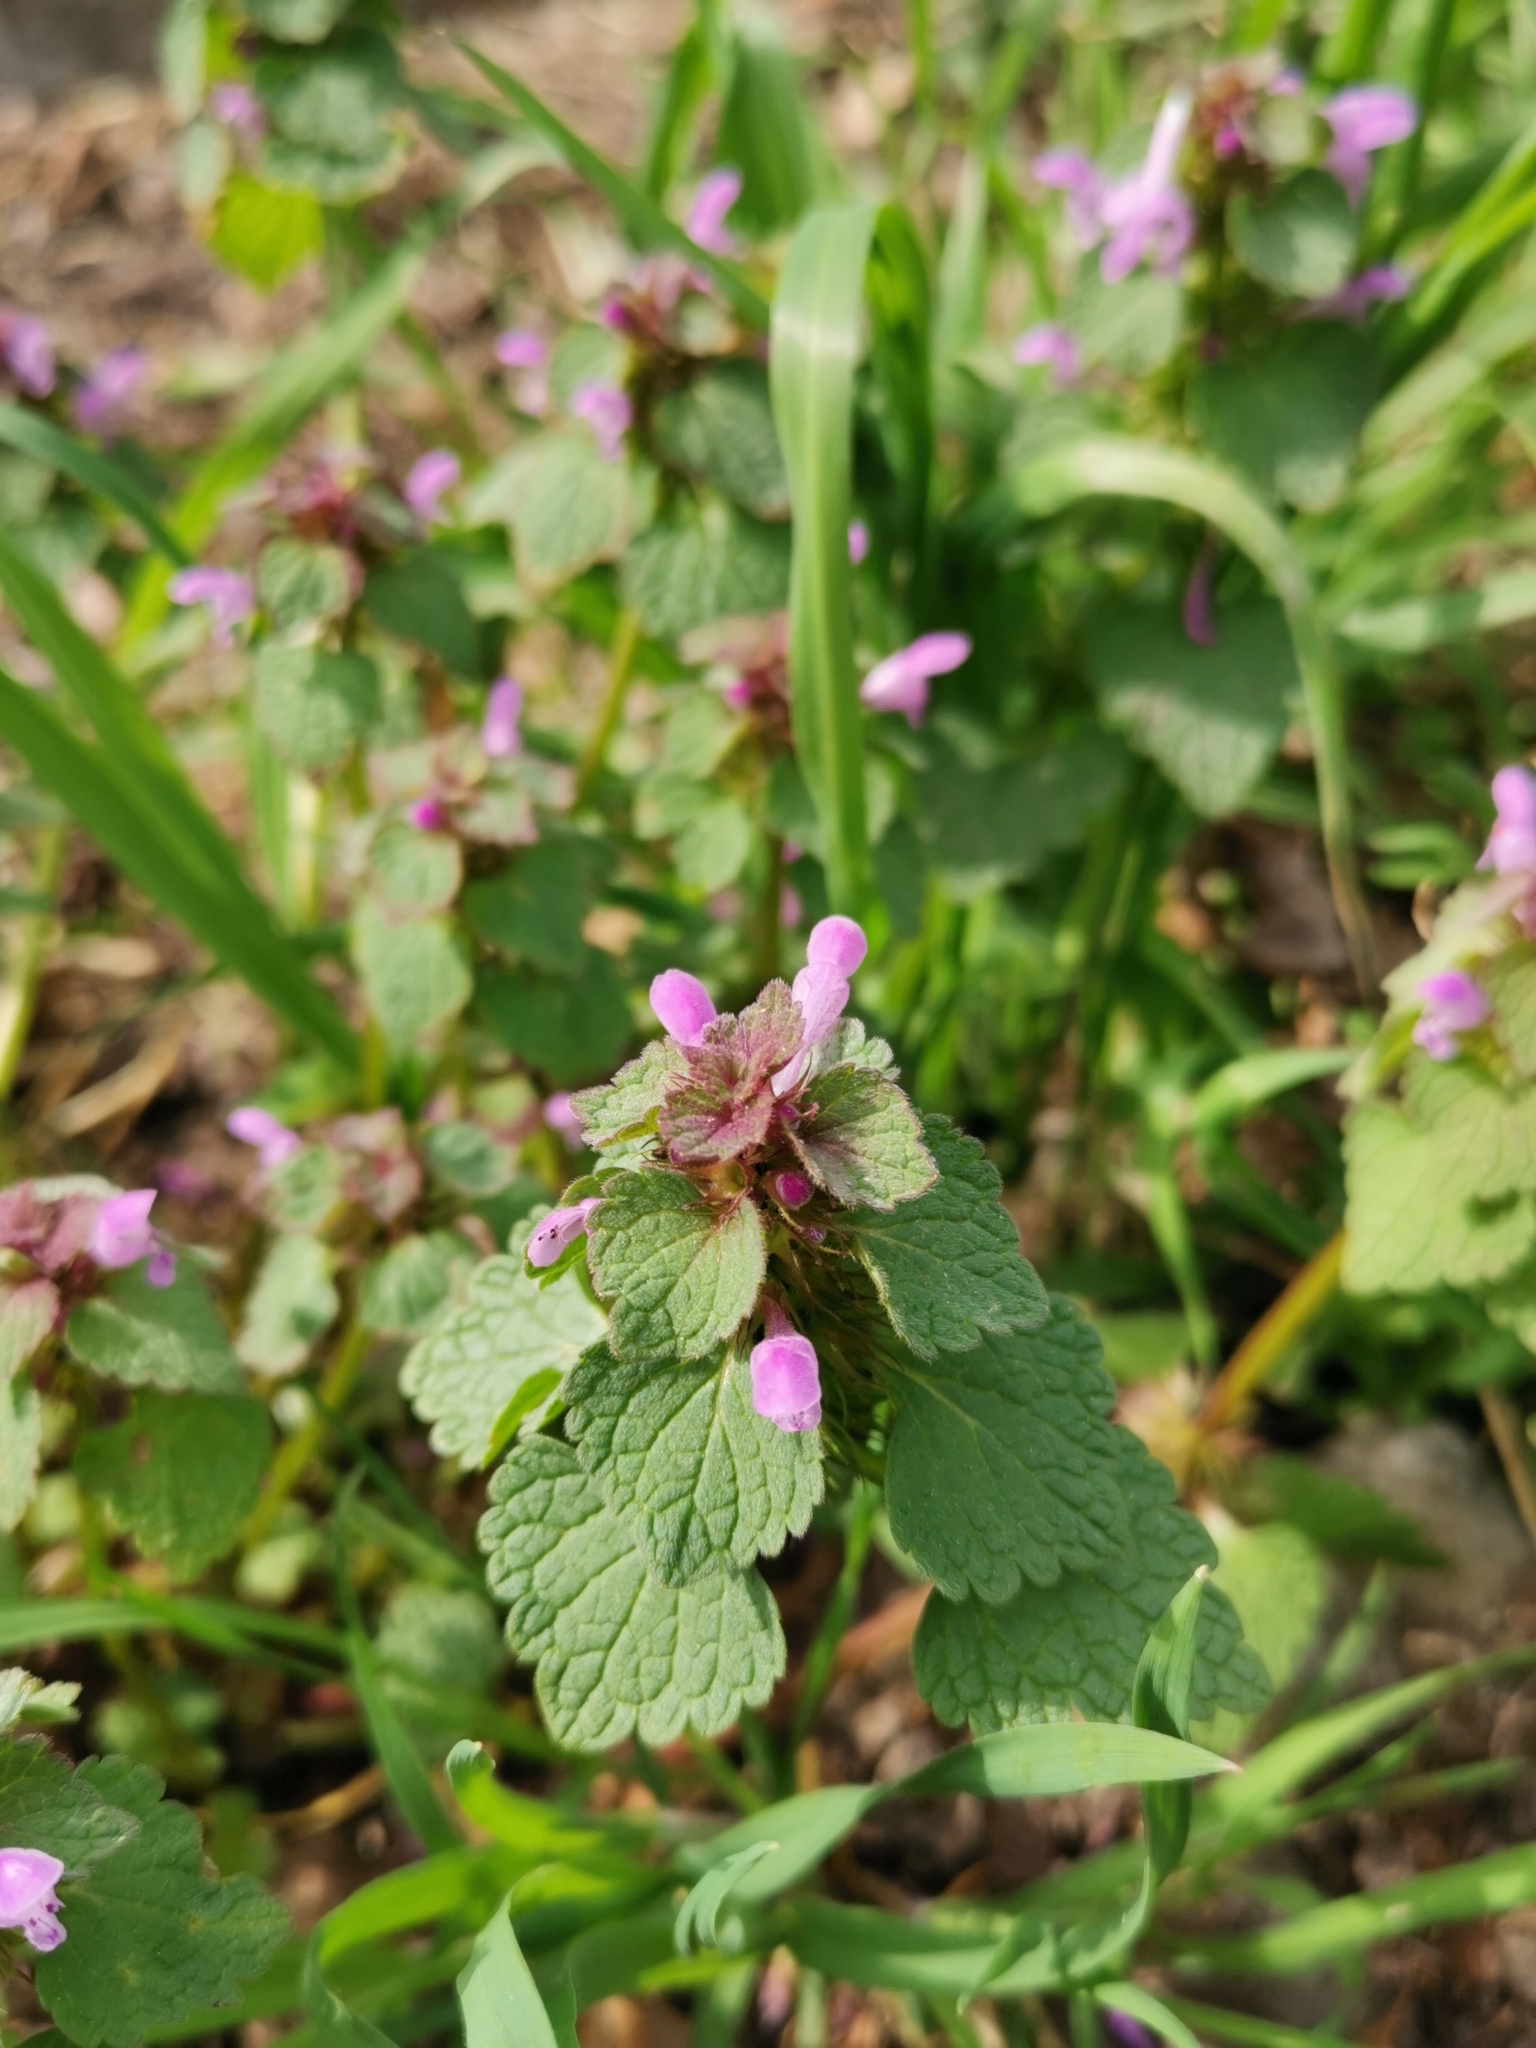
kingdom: Plantae
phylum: Tracheophyta
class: Magnoliopsida
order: Lamiales
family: Lamiaceae
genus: Lamium
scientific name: Lamium purpureum
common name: Red dead-nettle
